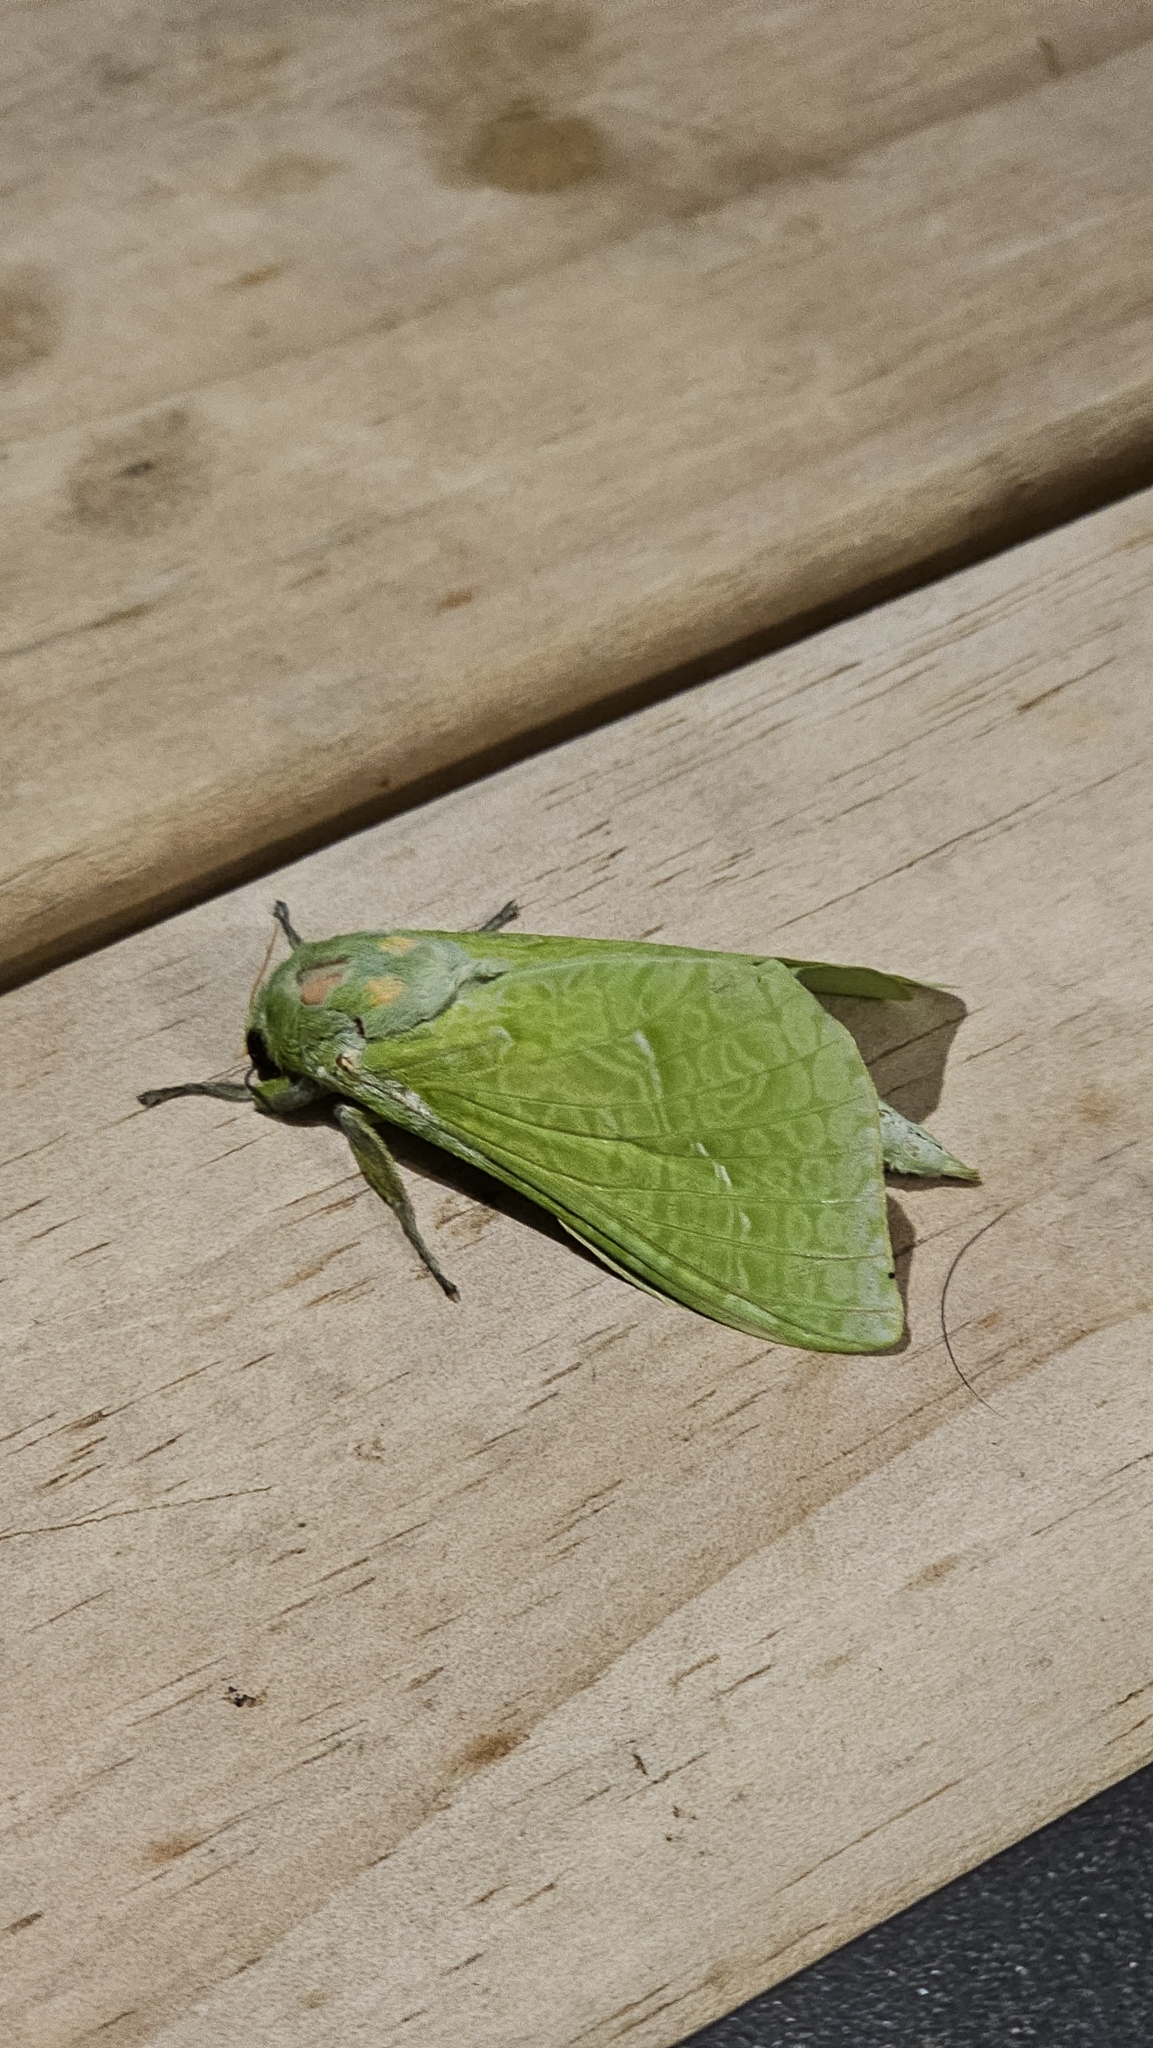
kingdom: Animalia
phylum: Arthropoda
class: Insecta
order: Lepidoptera
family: Hepialidae
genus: Aenetus
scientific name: Aenetus virescens
